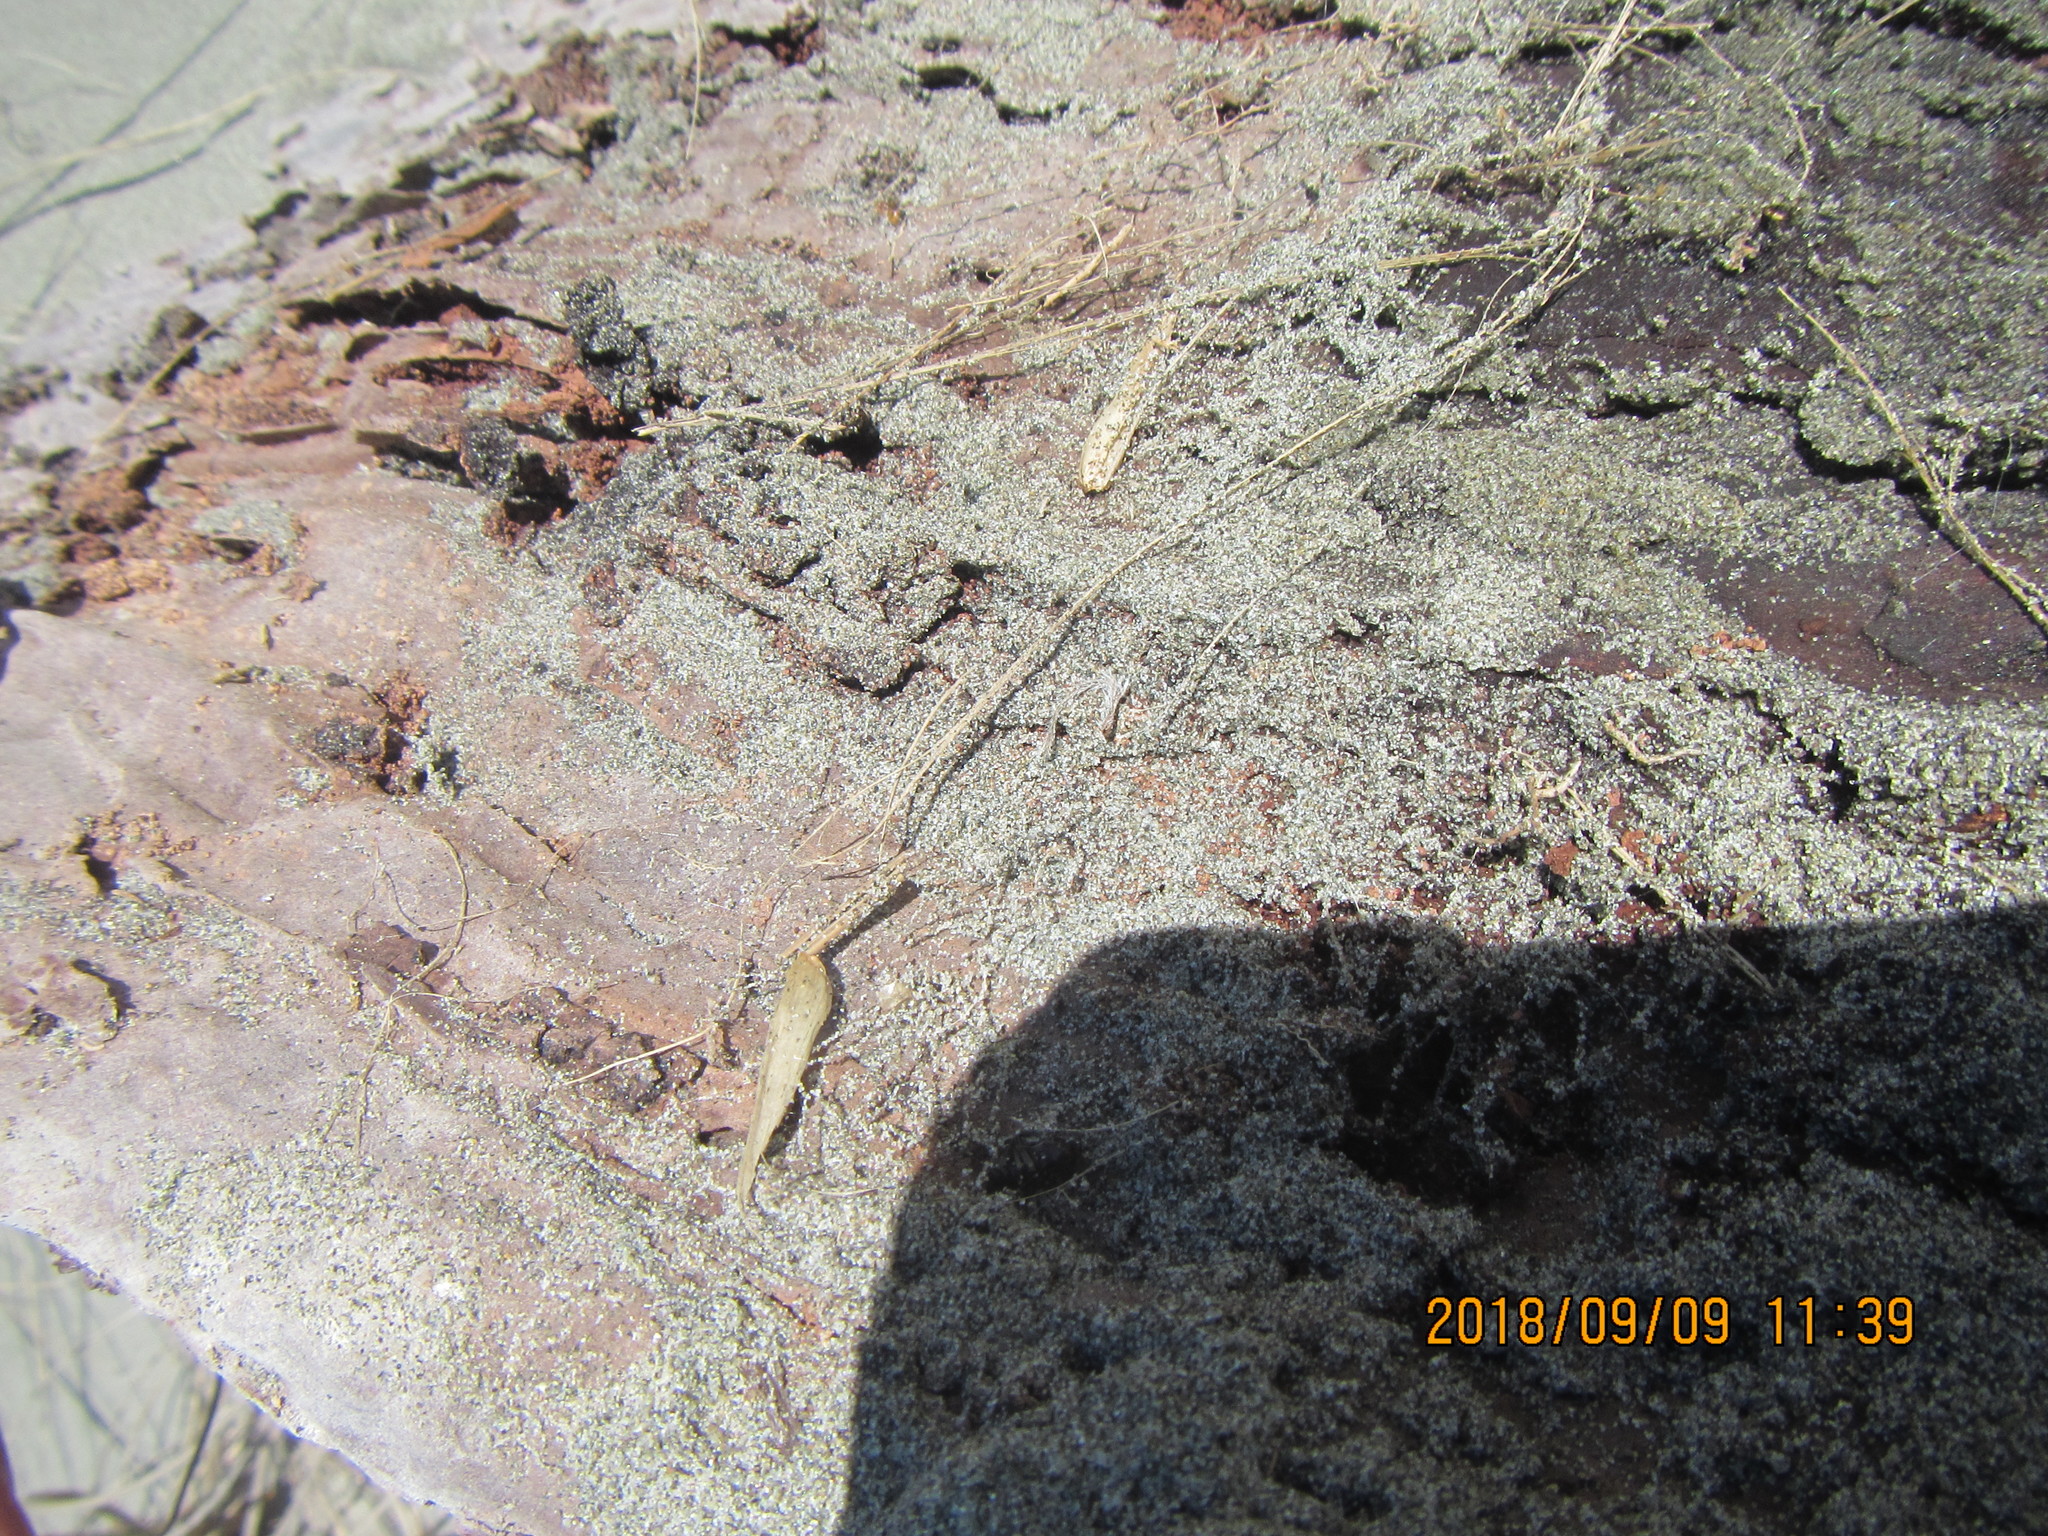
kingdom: Animalia
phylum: Arthropoda
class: Arachnida
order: Araneae
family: Theridiidae
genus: Steatoda
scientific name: Steatoda capensis
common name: Cobweb weaver
